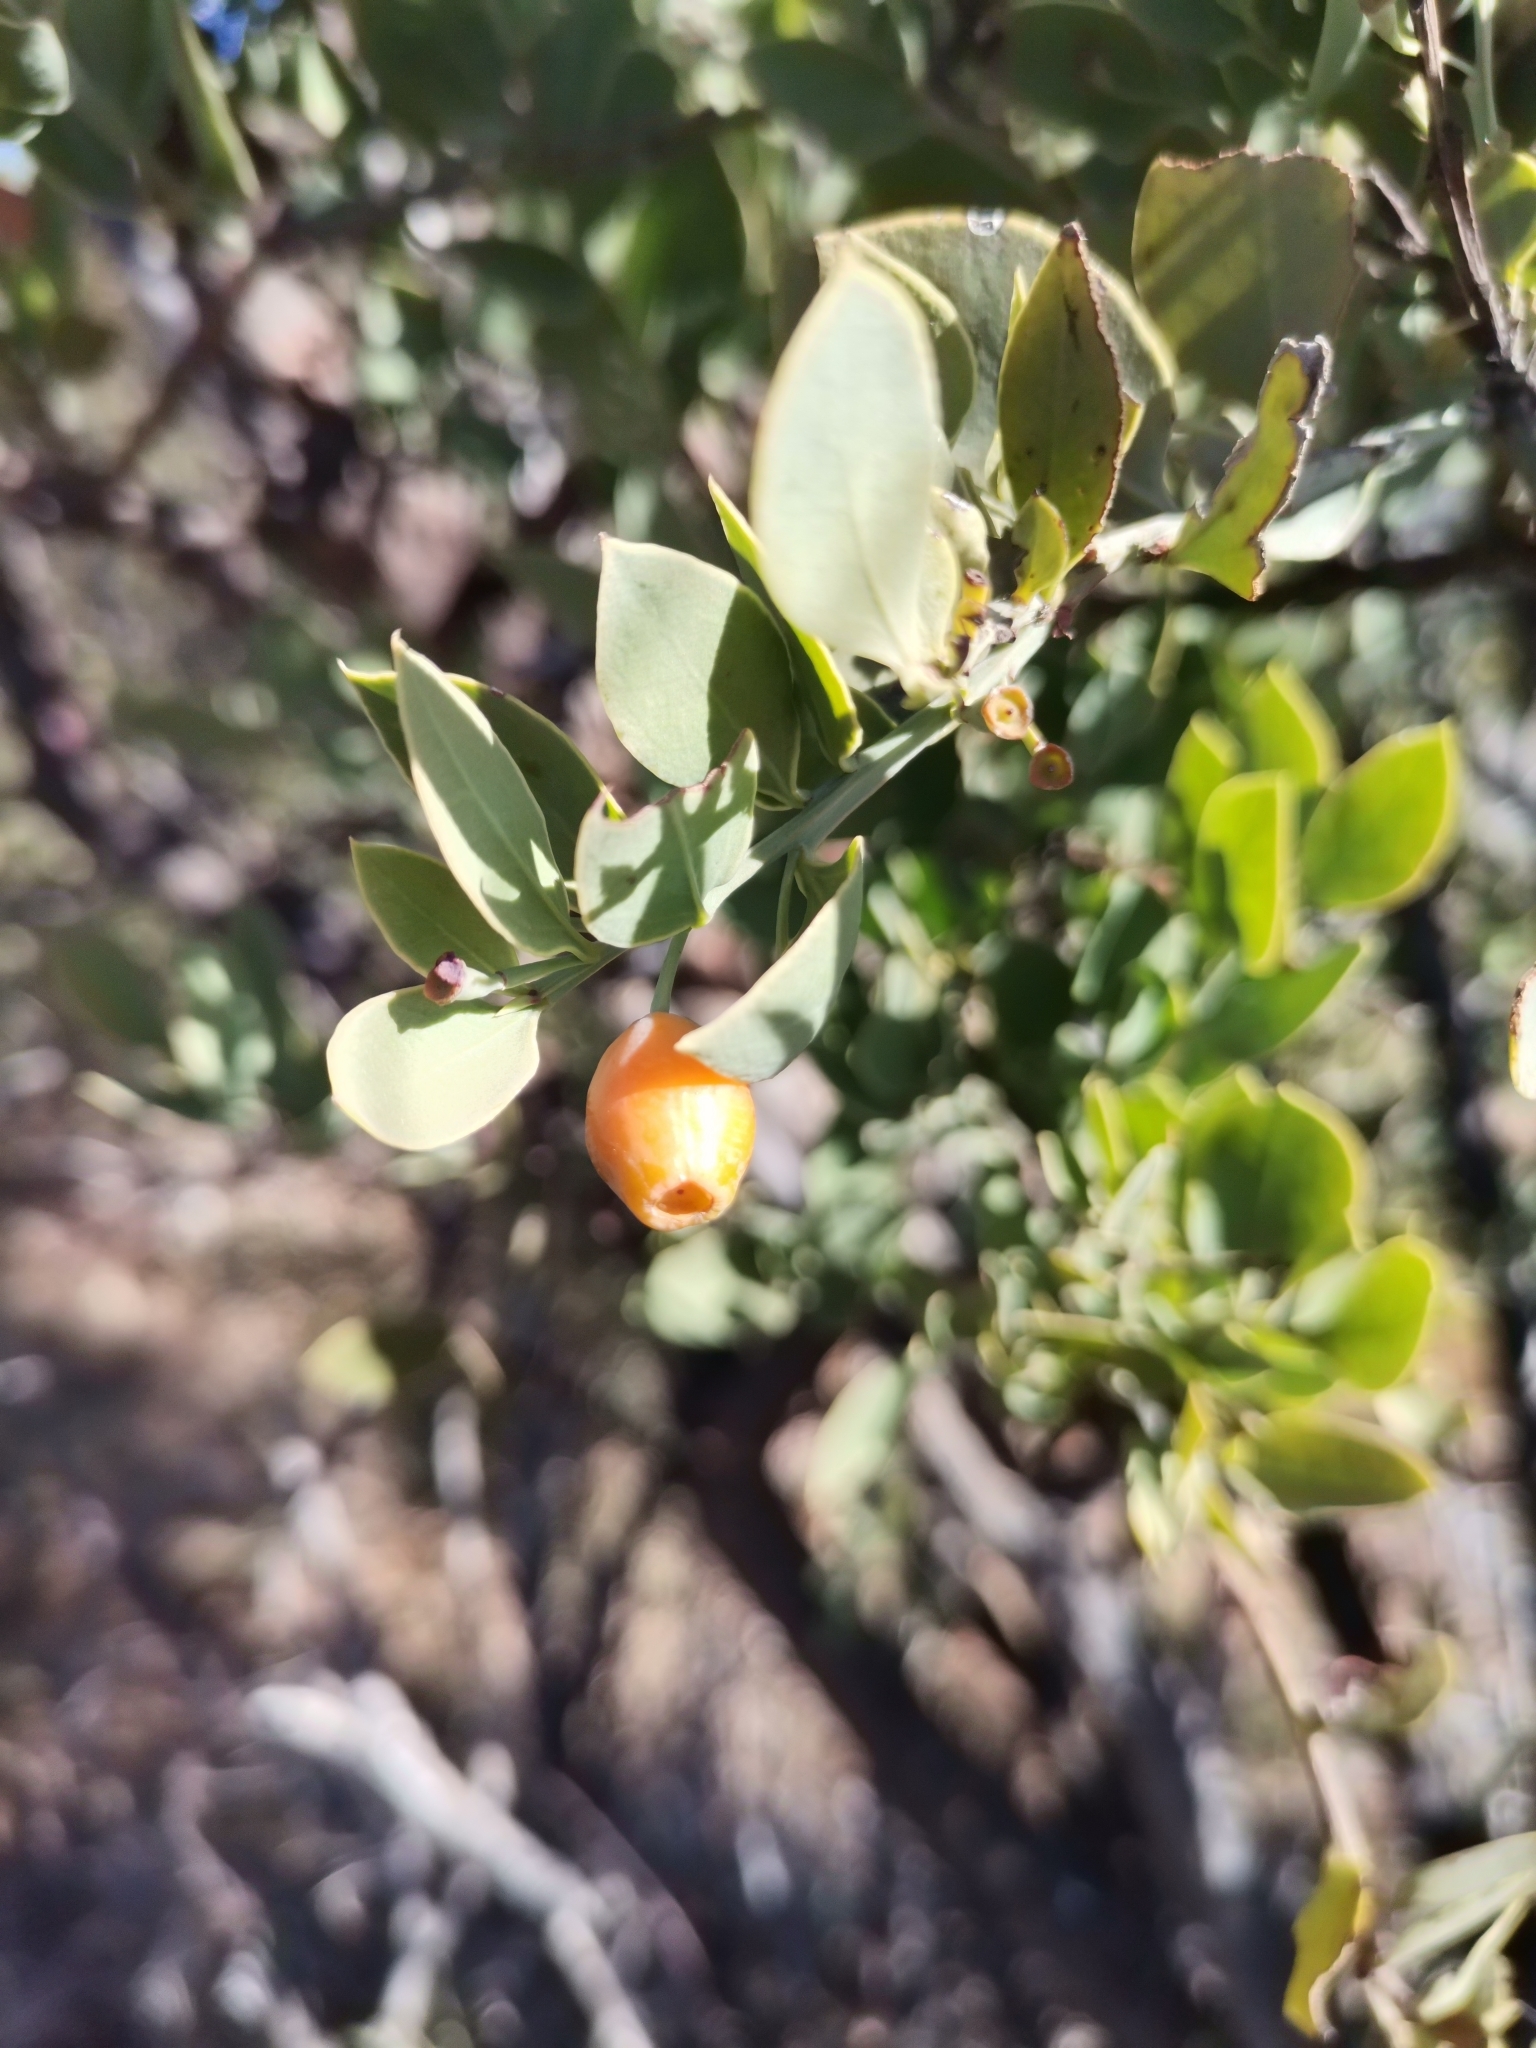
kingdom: Plantae
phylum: Tracheophyta
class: Magnoliopsida
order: Santalales
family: Santalaceae
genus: Osyris
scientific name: Osyris lanceolata
